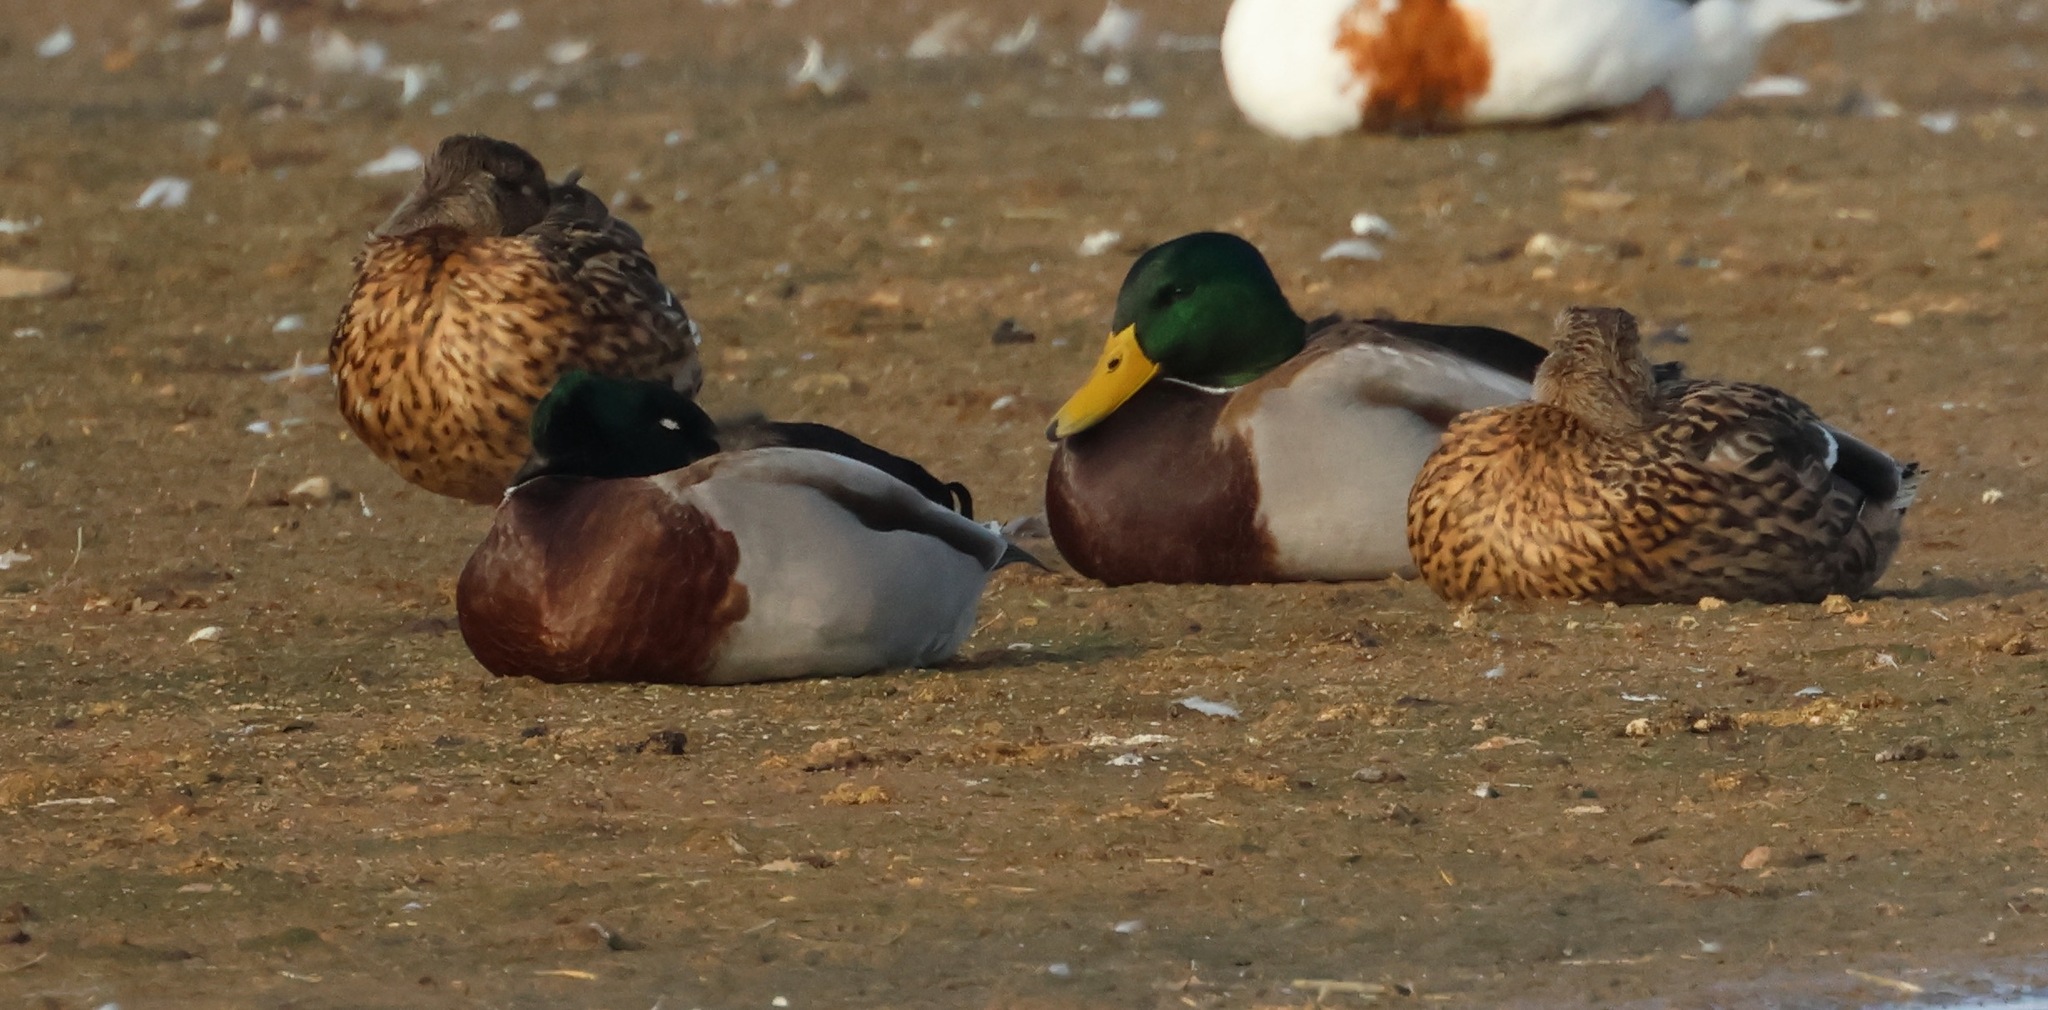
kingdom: Animalia
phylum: Chordata
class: Aves
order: Anseriformes
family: Anatidae
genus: Anas
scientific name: Anas platyrhynchos
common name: Mallard
